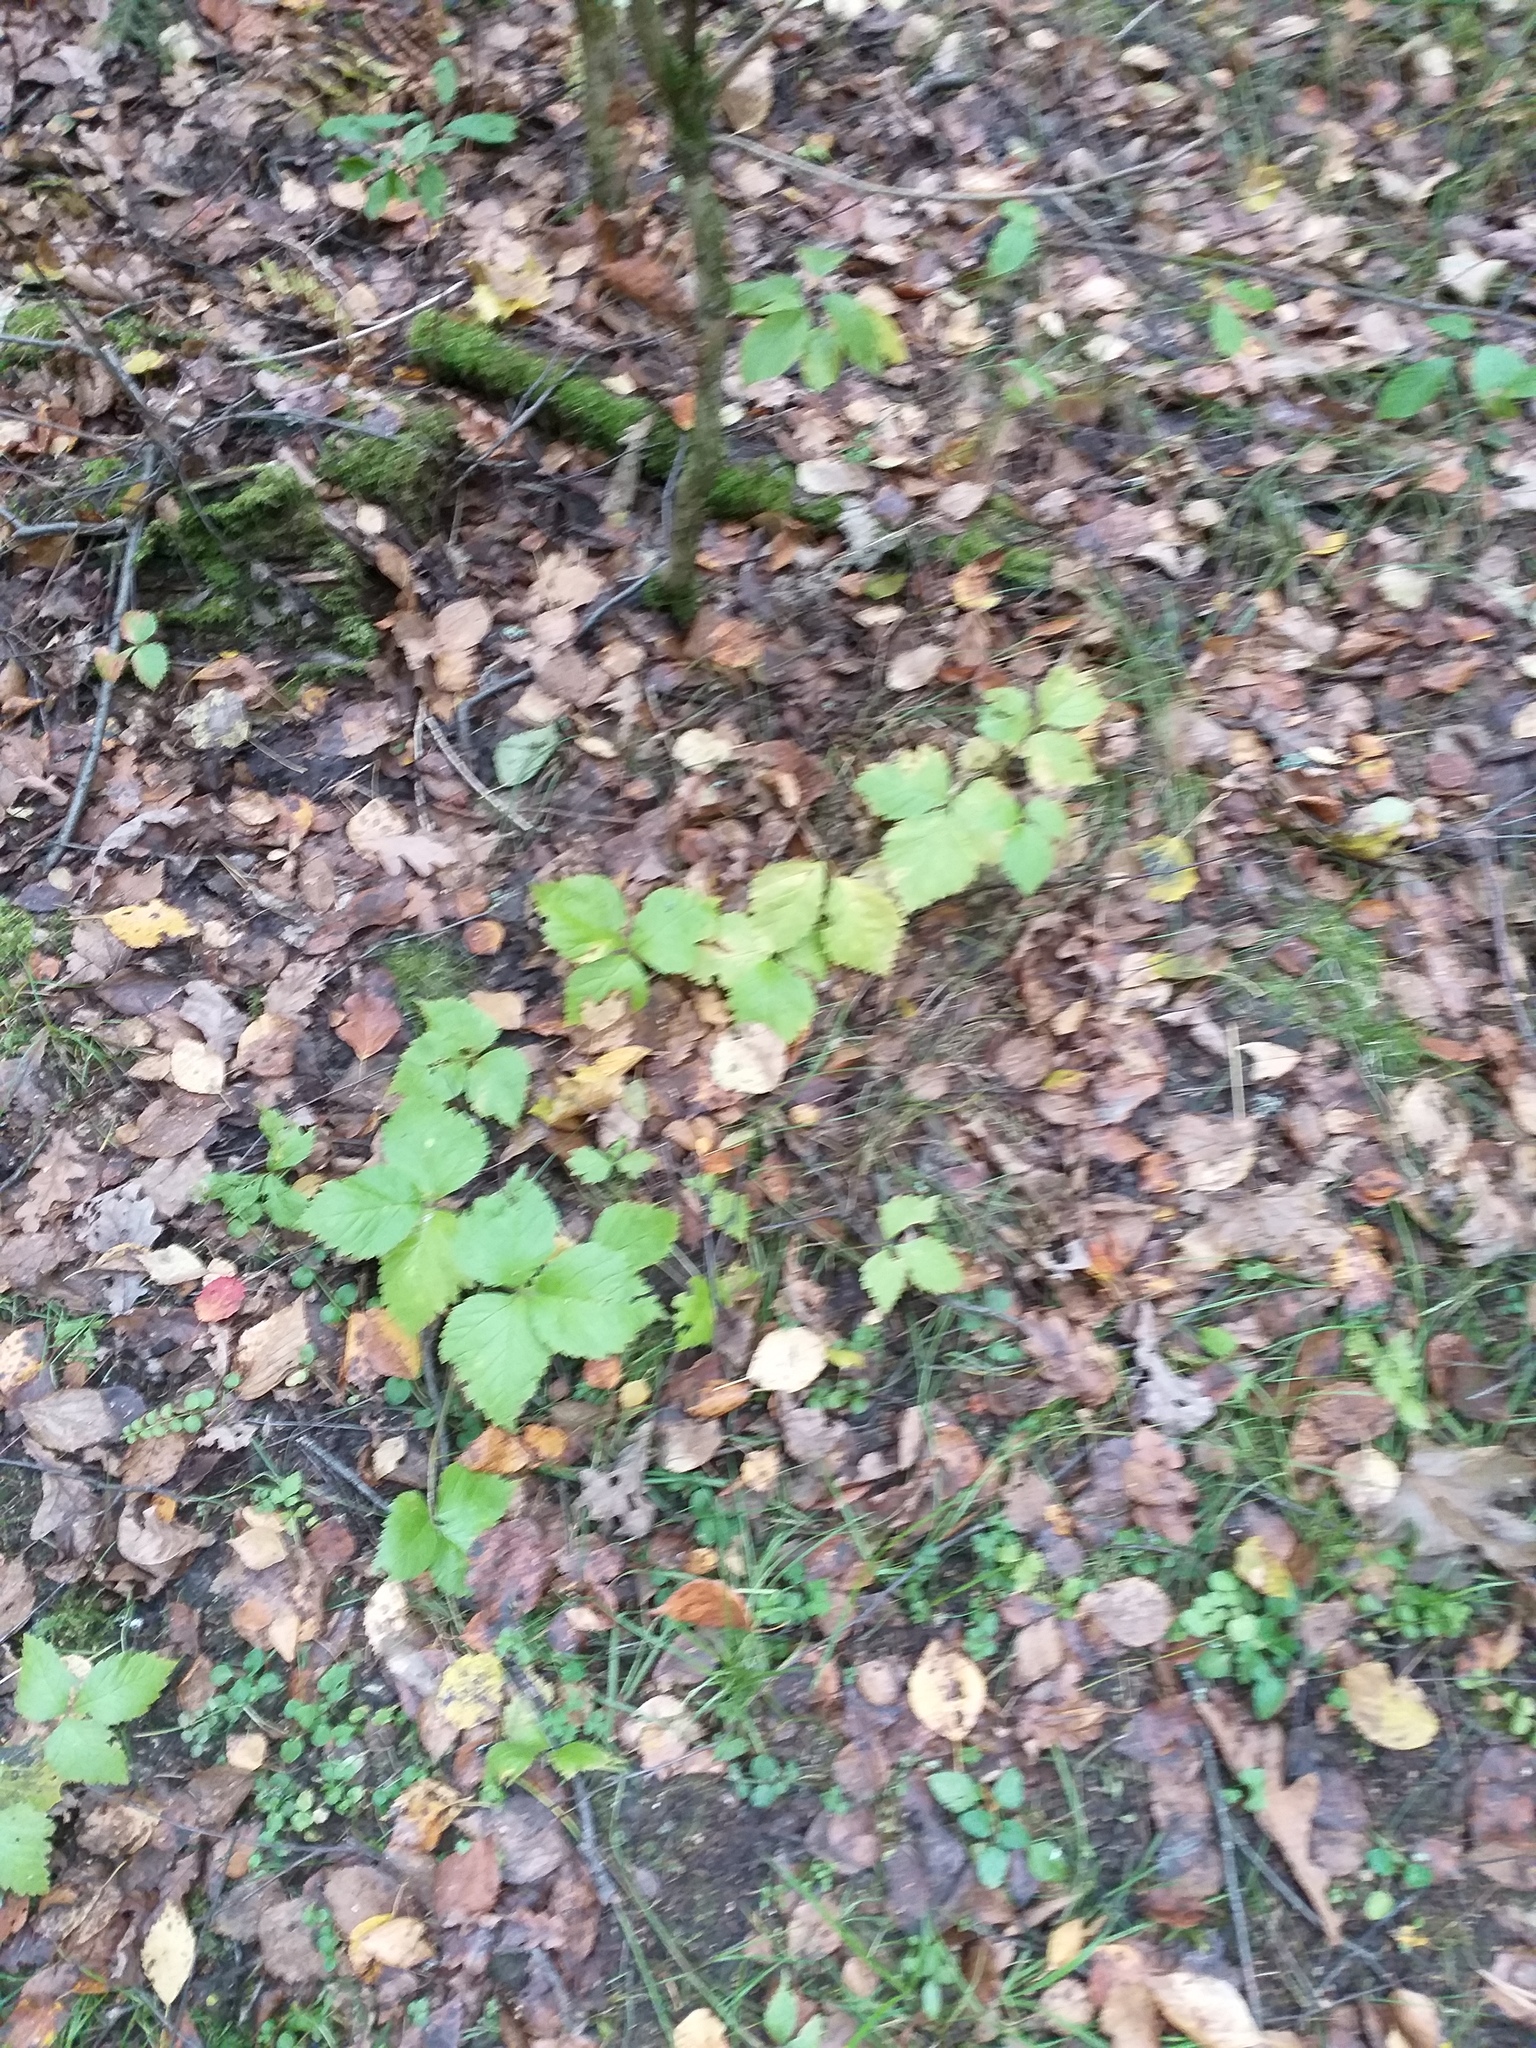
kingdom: Plantae
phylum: Tracheophyta
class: Magnoliopsida
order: Rosales
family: Rosaceae
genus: Rubus
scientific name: Rubus saxatilis
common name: Stone bramble
